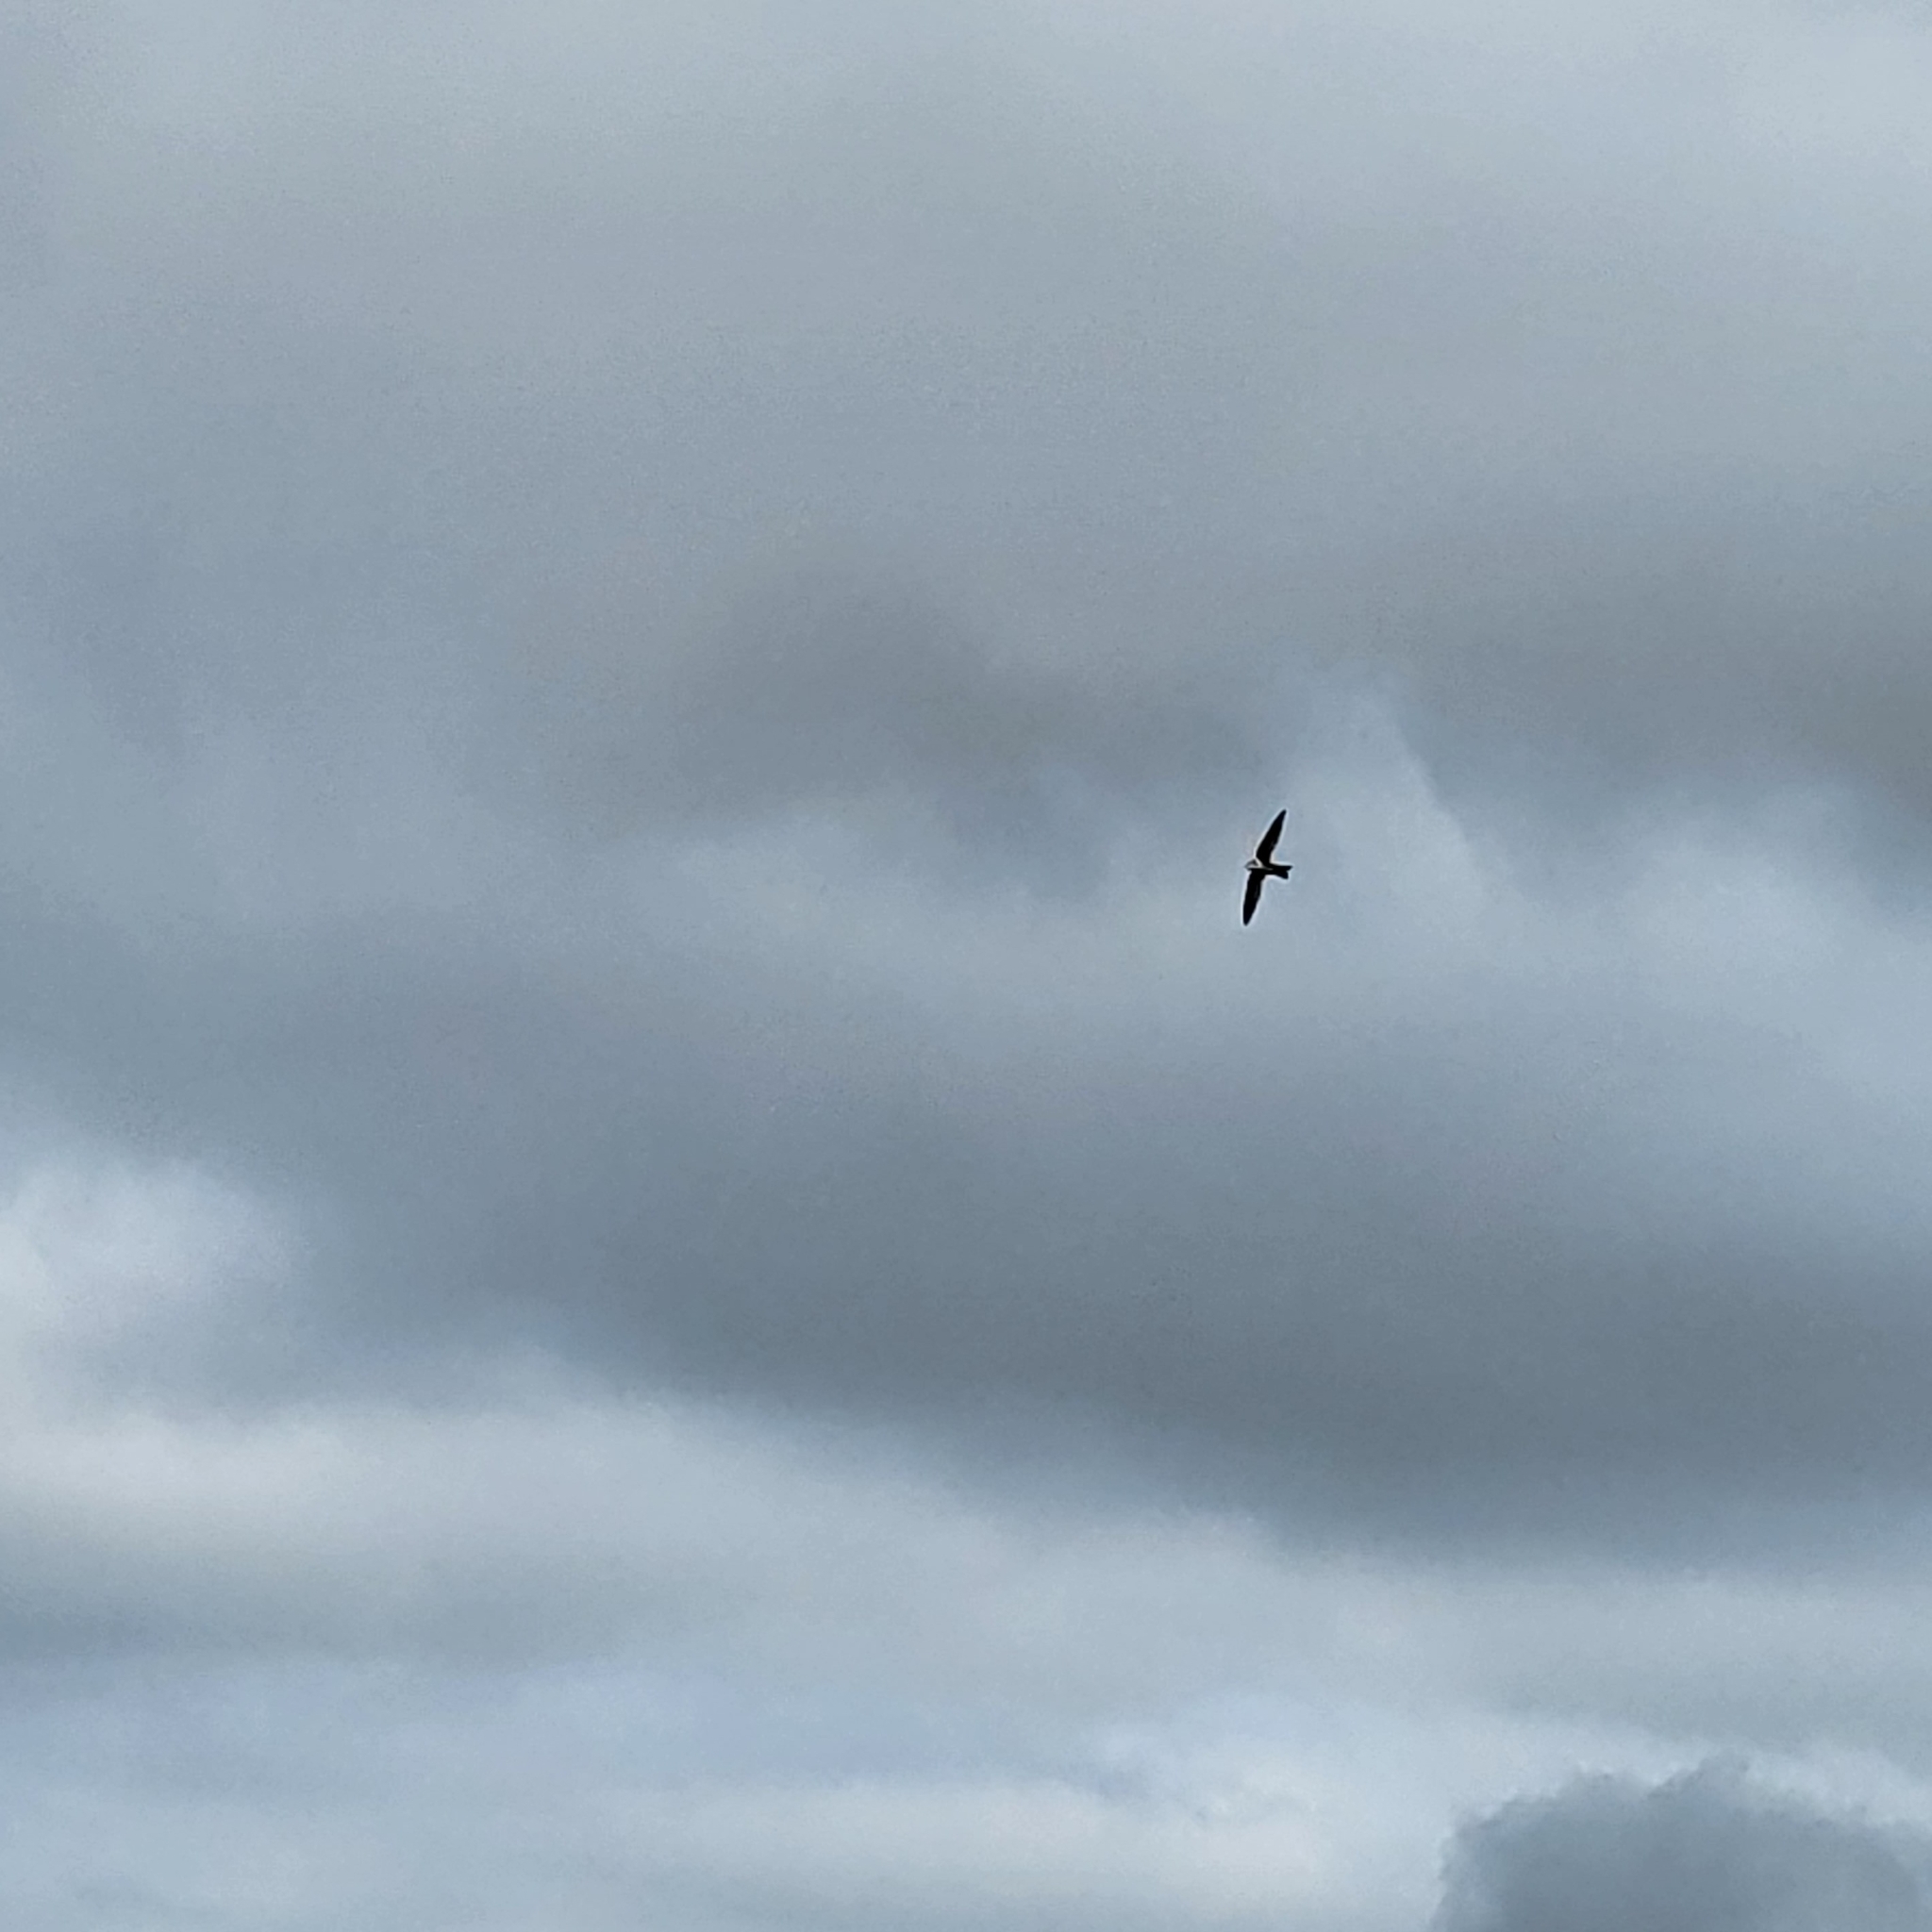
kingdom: Animalia
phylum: Chordata
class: Aves
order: Apodiformes
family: Apodidae
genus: Aeronautes
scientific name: Aeronautes saxatalis
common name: White-throated swift
